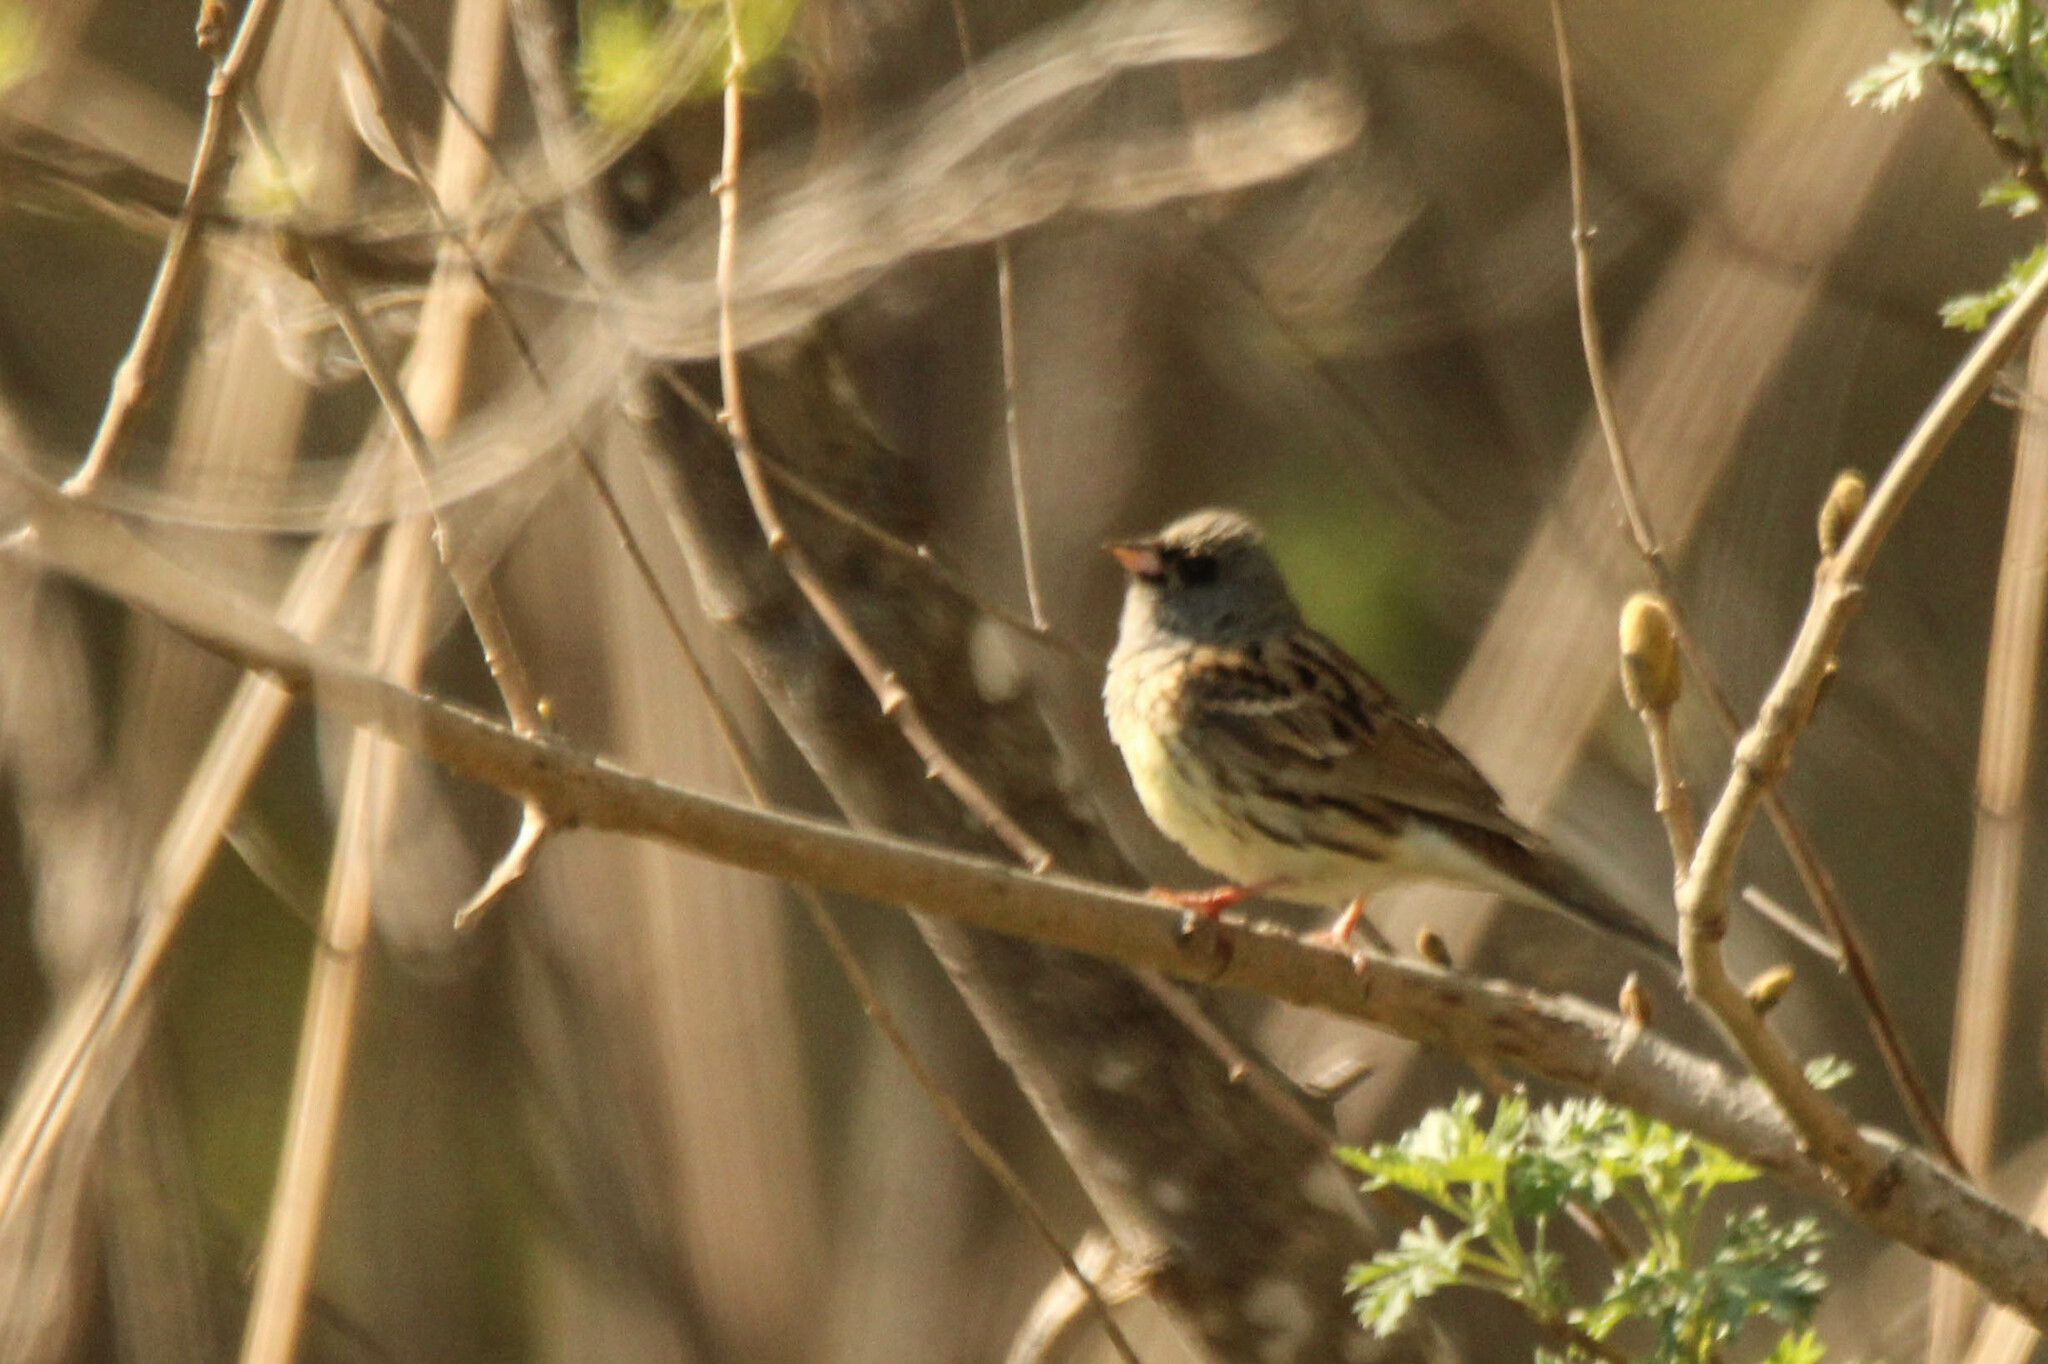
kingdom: Animalia
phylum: Chordata
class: Aves
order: Passeriformes
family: Emberizidae
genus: Emberiza
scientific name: Emberiza spodocephala
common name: Black-faced bunting
